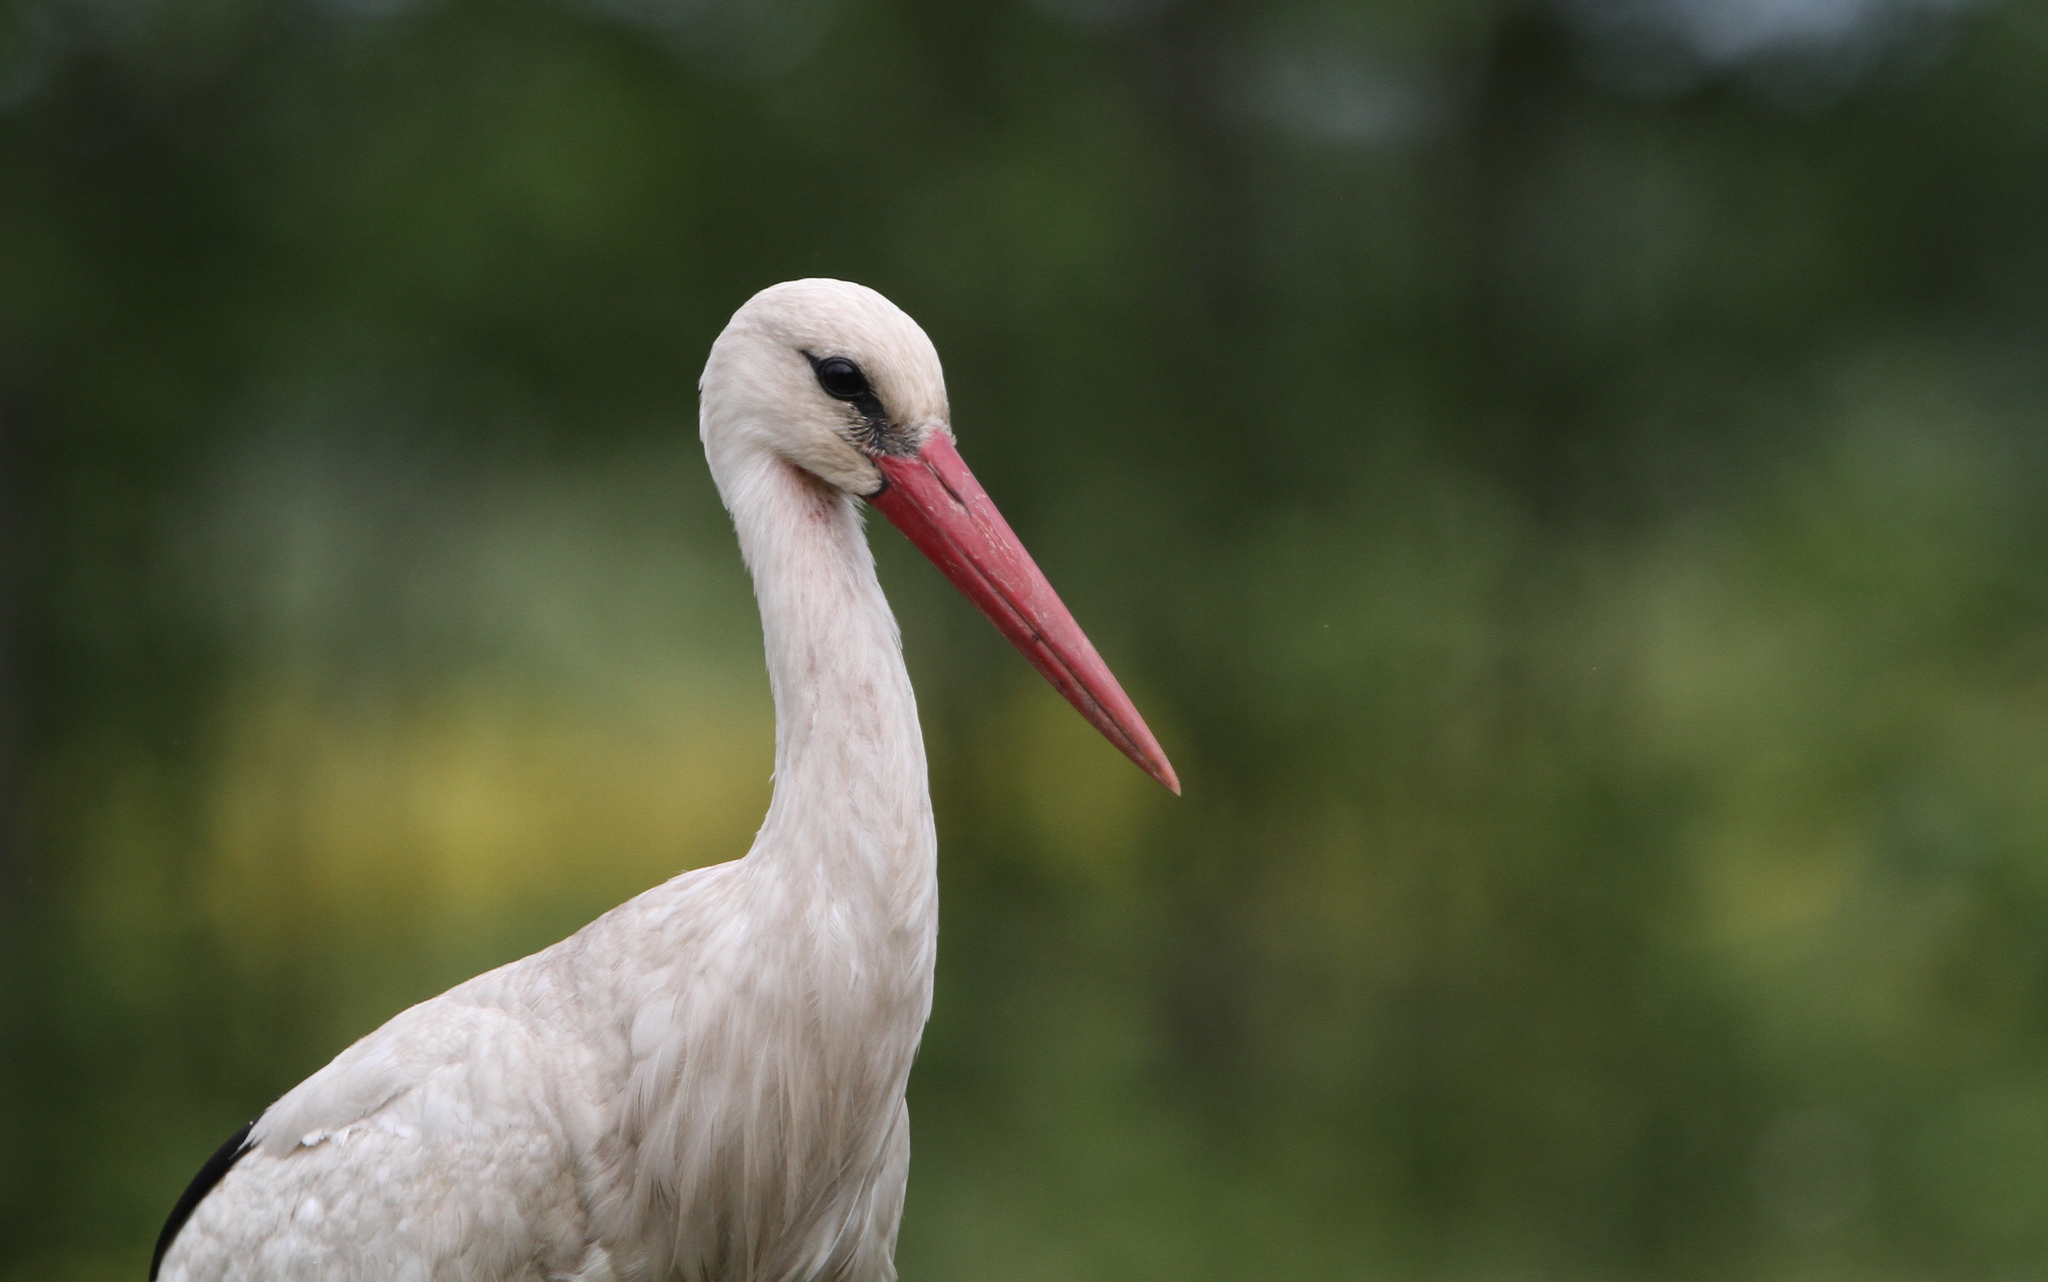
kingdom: Animalia
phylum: Chordata
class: Aves
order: Ciconiiformes
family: Ciconiidae
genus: Ciconia
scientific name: Ciconia ciconia
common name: White stork
